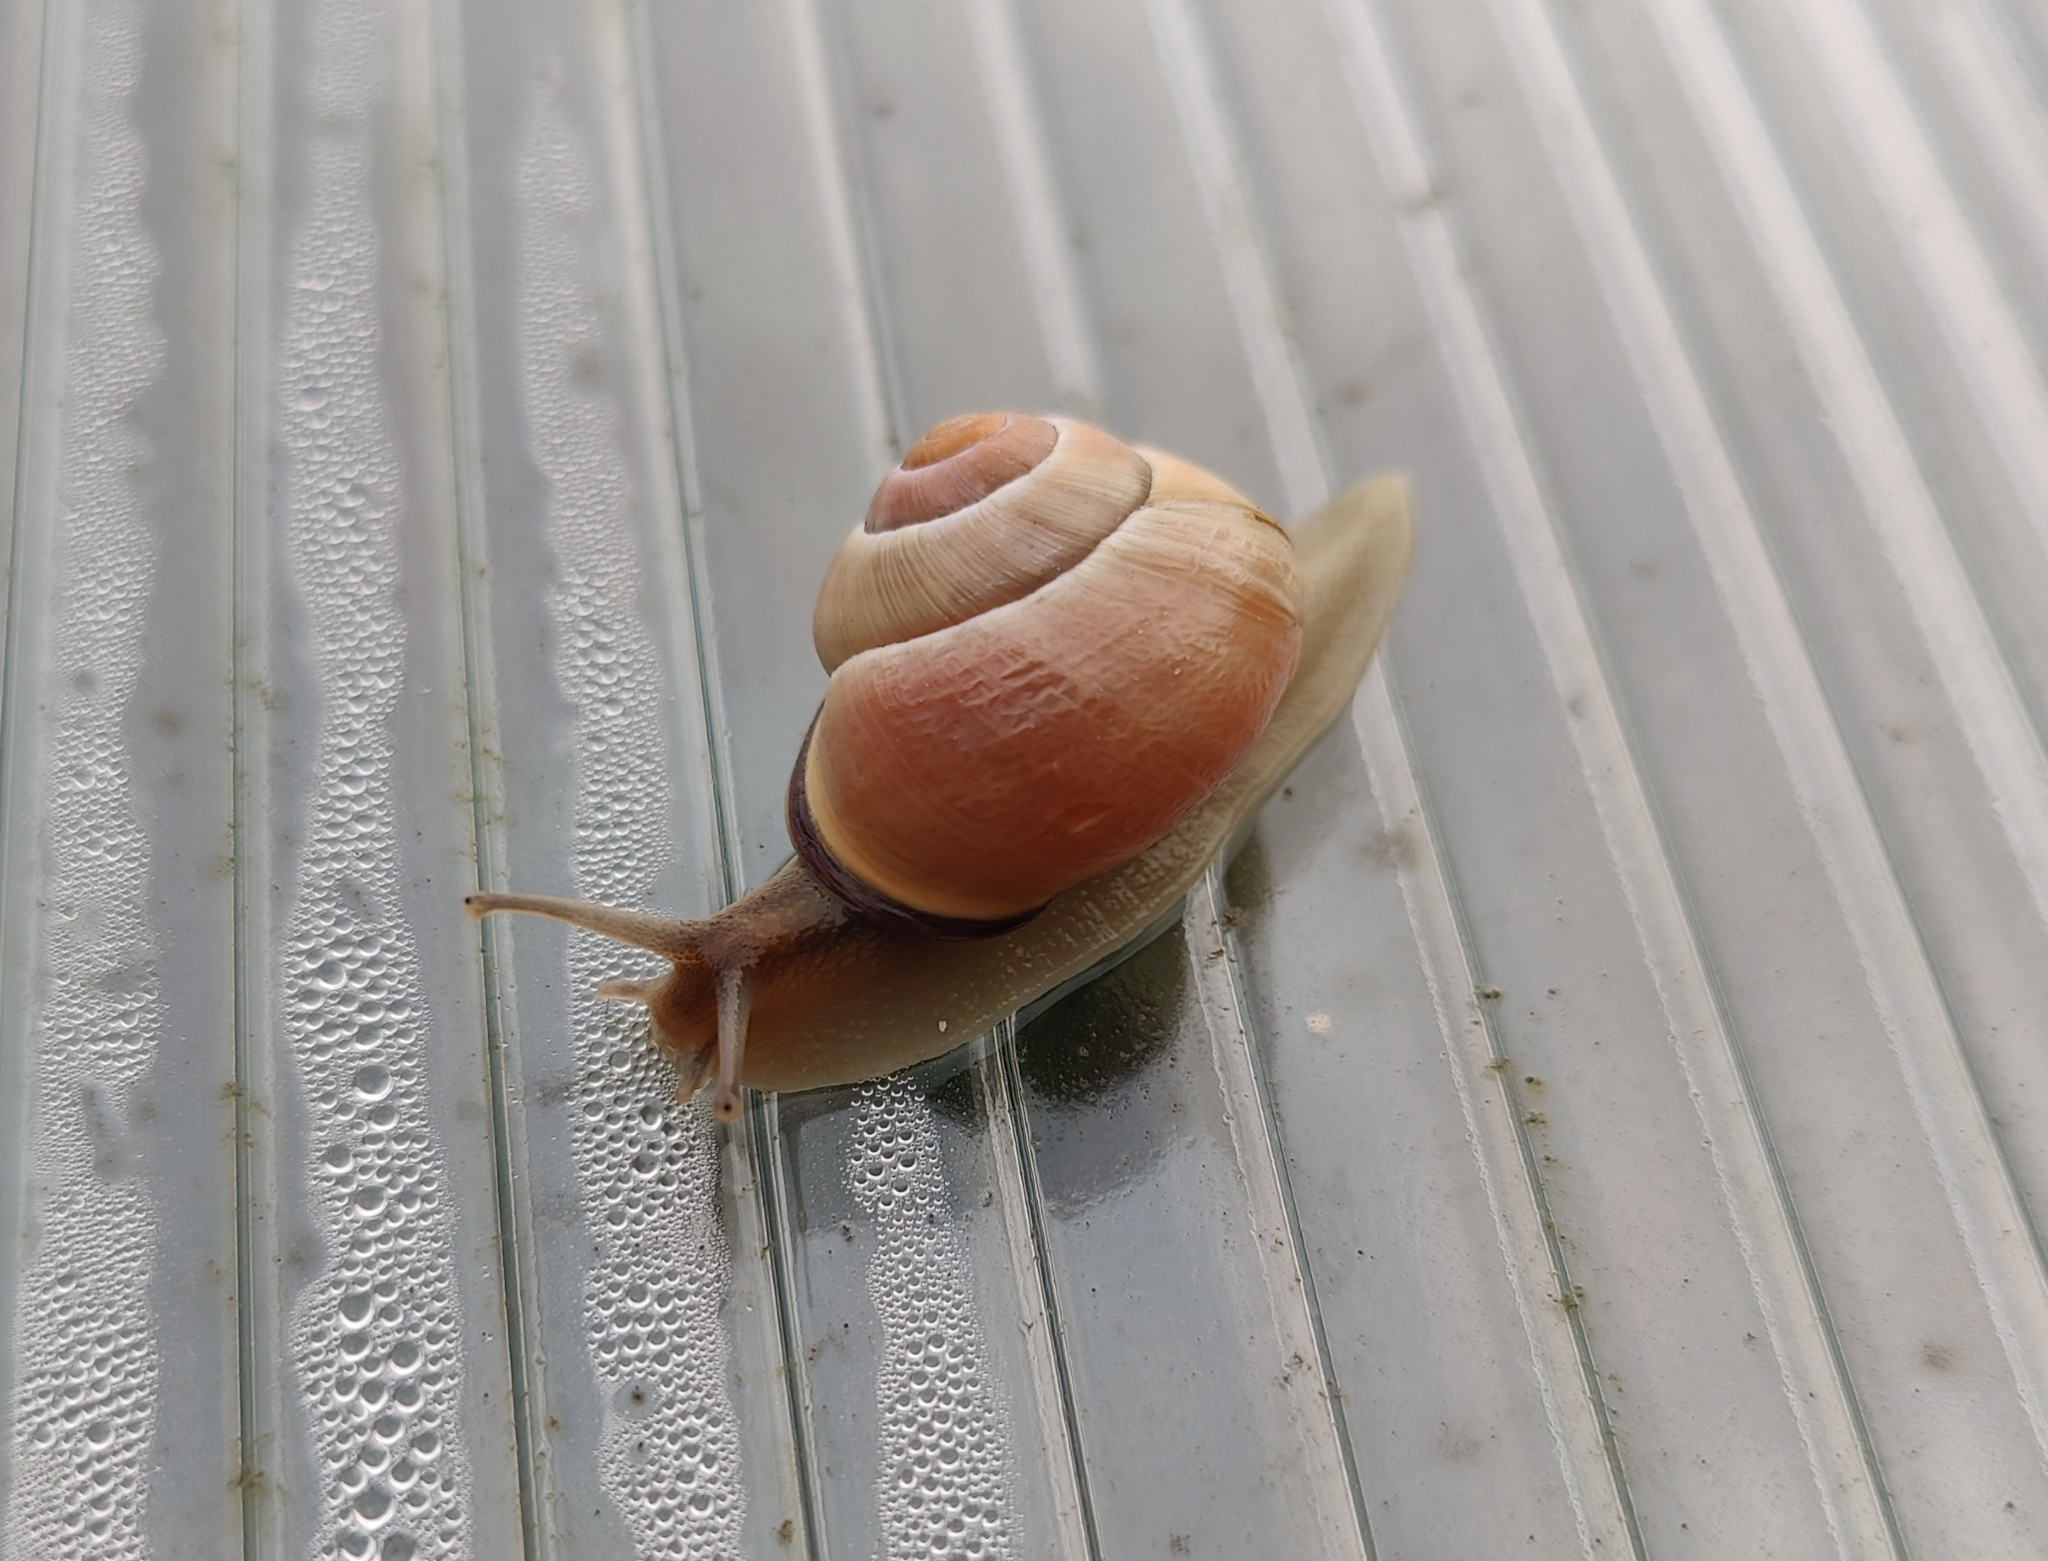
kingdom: Animalia
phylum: Mollusca
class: Gastropoda
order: Stylommatophora
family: Helicidae
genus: Cepaea
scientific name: Cepaea nemoralis
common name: Grovesnail
